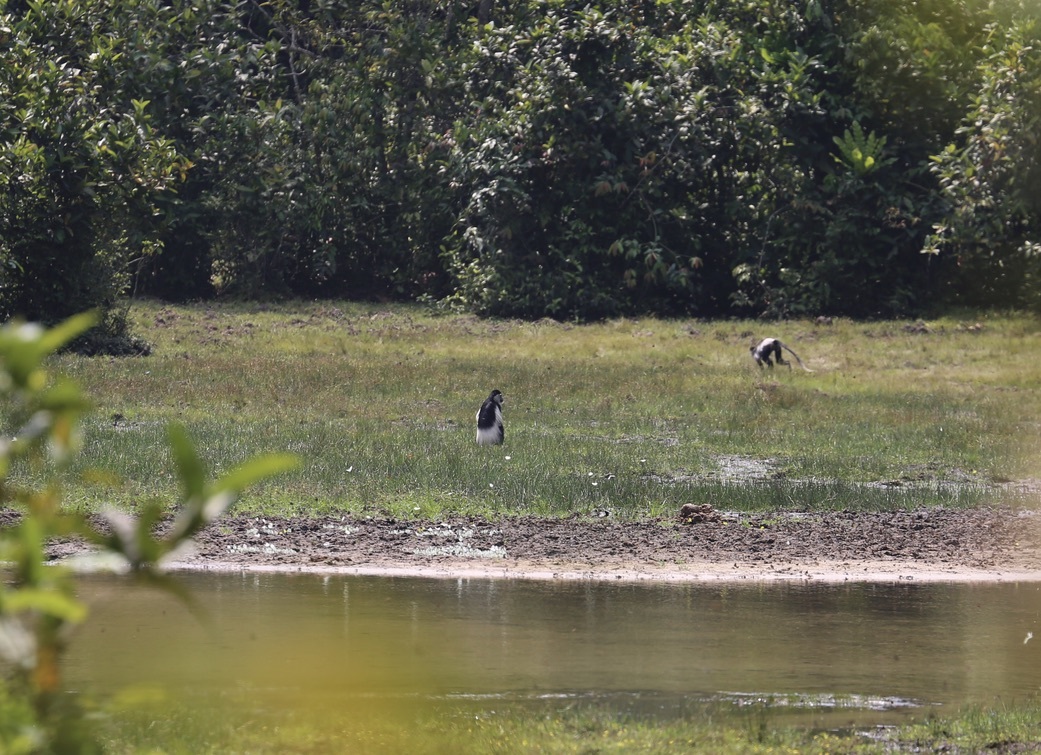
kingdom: Animalia
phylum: Chordata
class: Mammalia
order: Primates
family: Cercopithecidae
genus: Colobus
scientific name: Colobus guereza
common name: Mantled guereza
